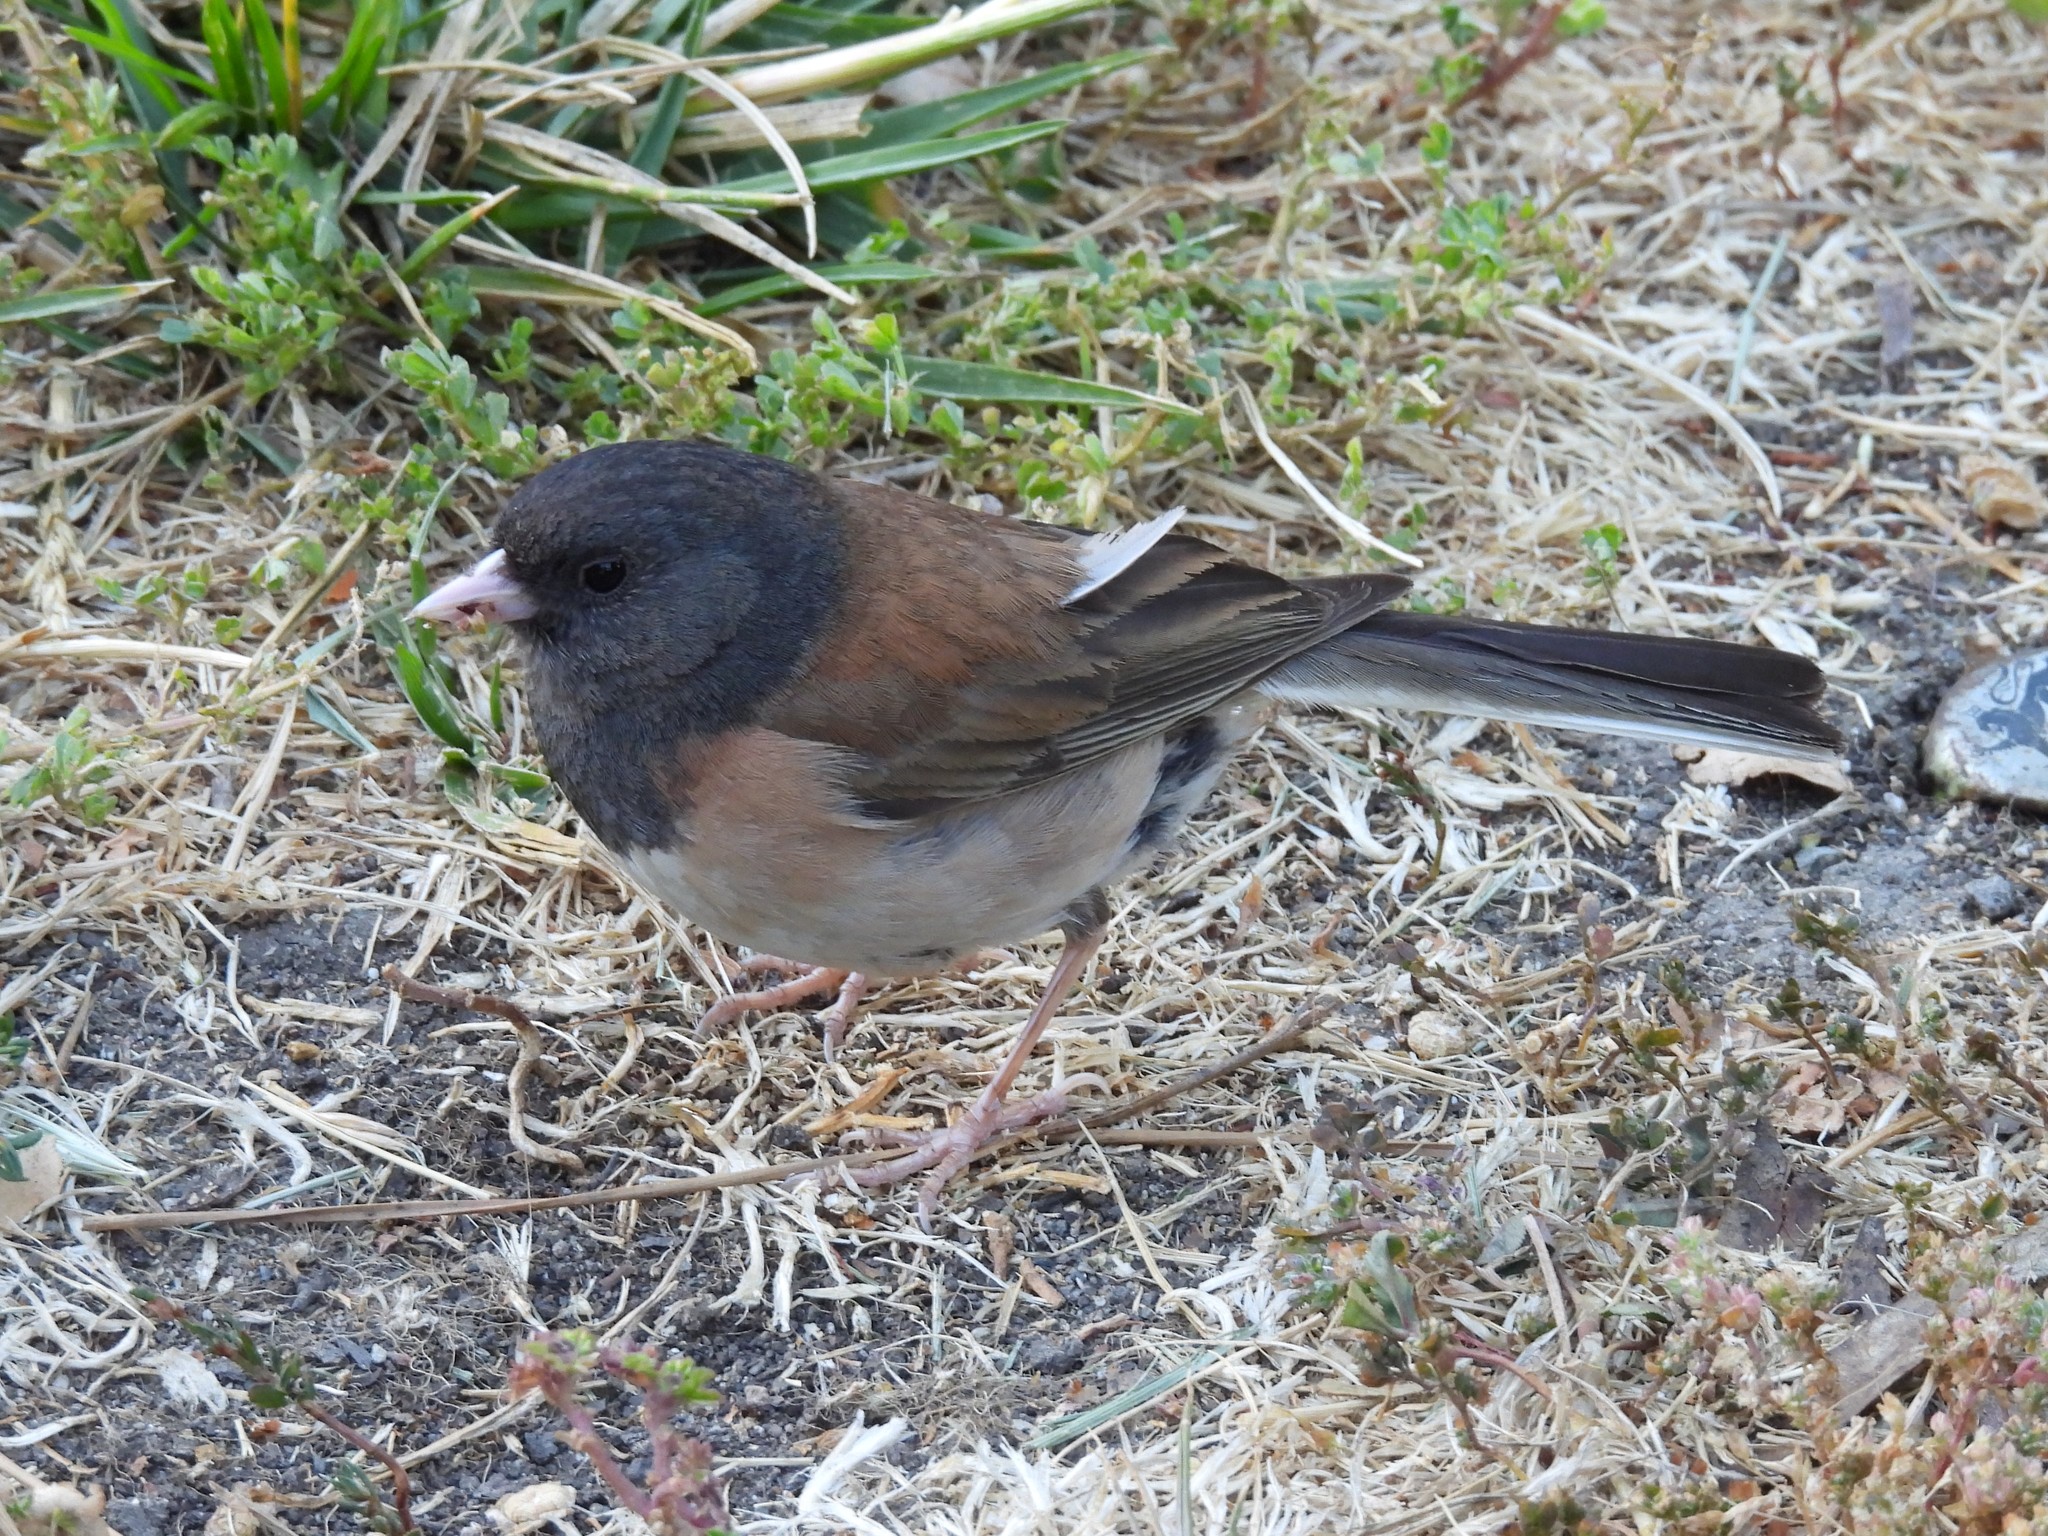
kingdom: Animalia
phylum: Chordata
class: Aves
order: Passeriformes
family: Passerellidae
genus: Junco
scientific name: Junco hyemalis
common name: Dark-eyed junco
